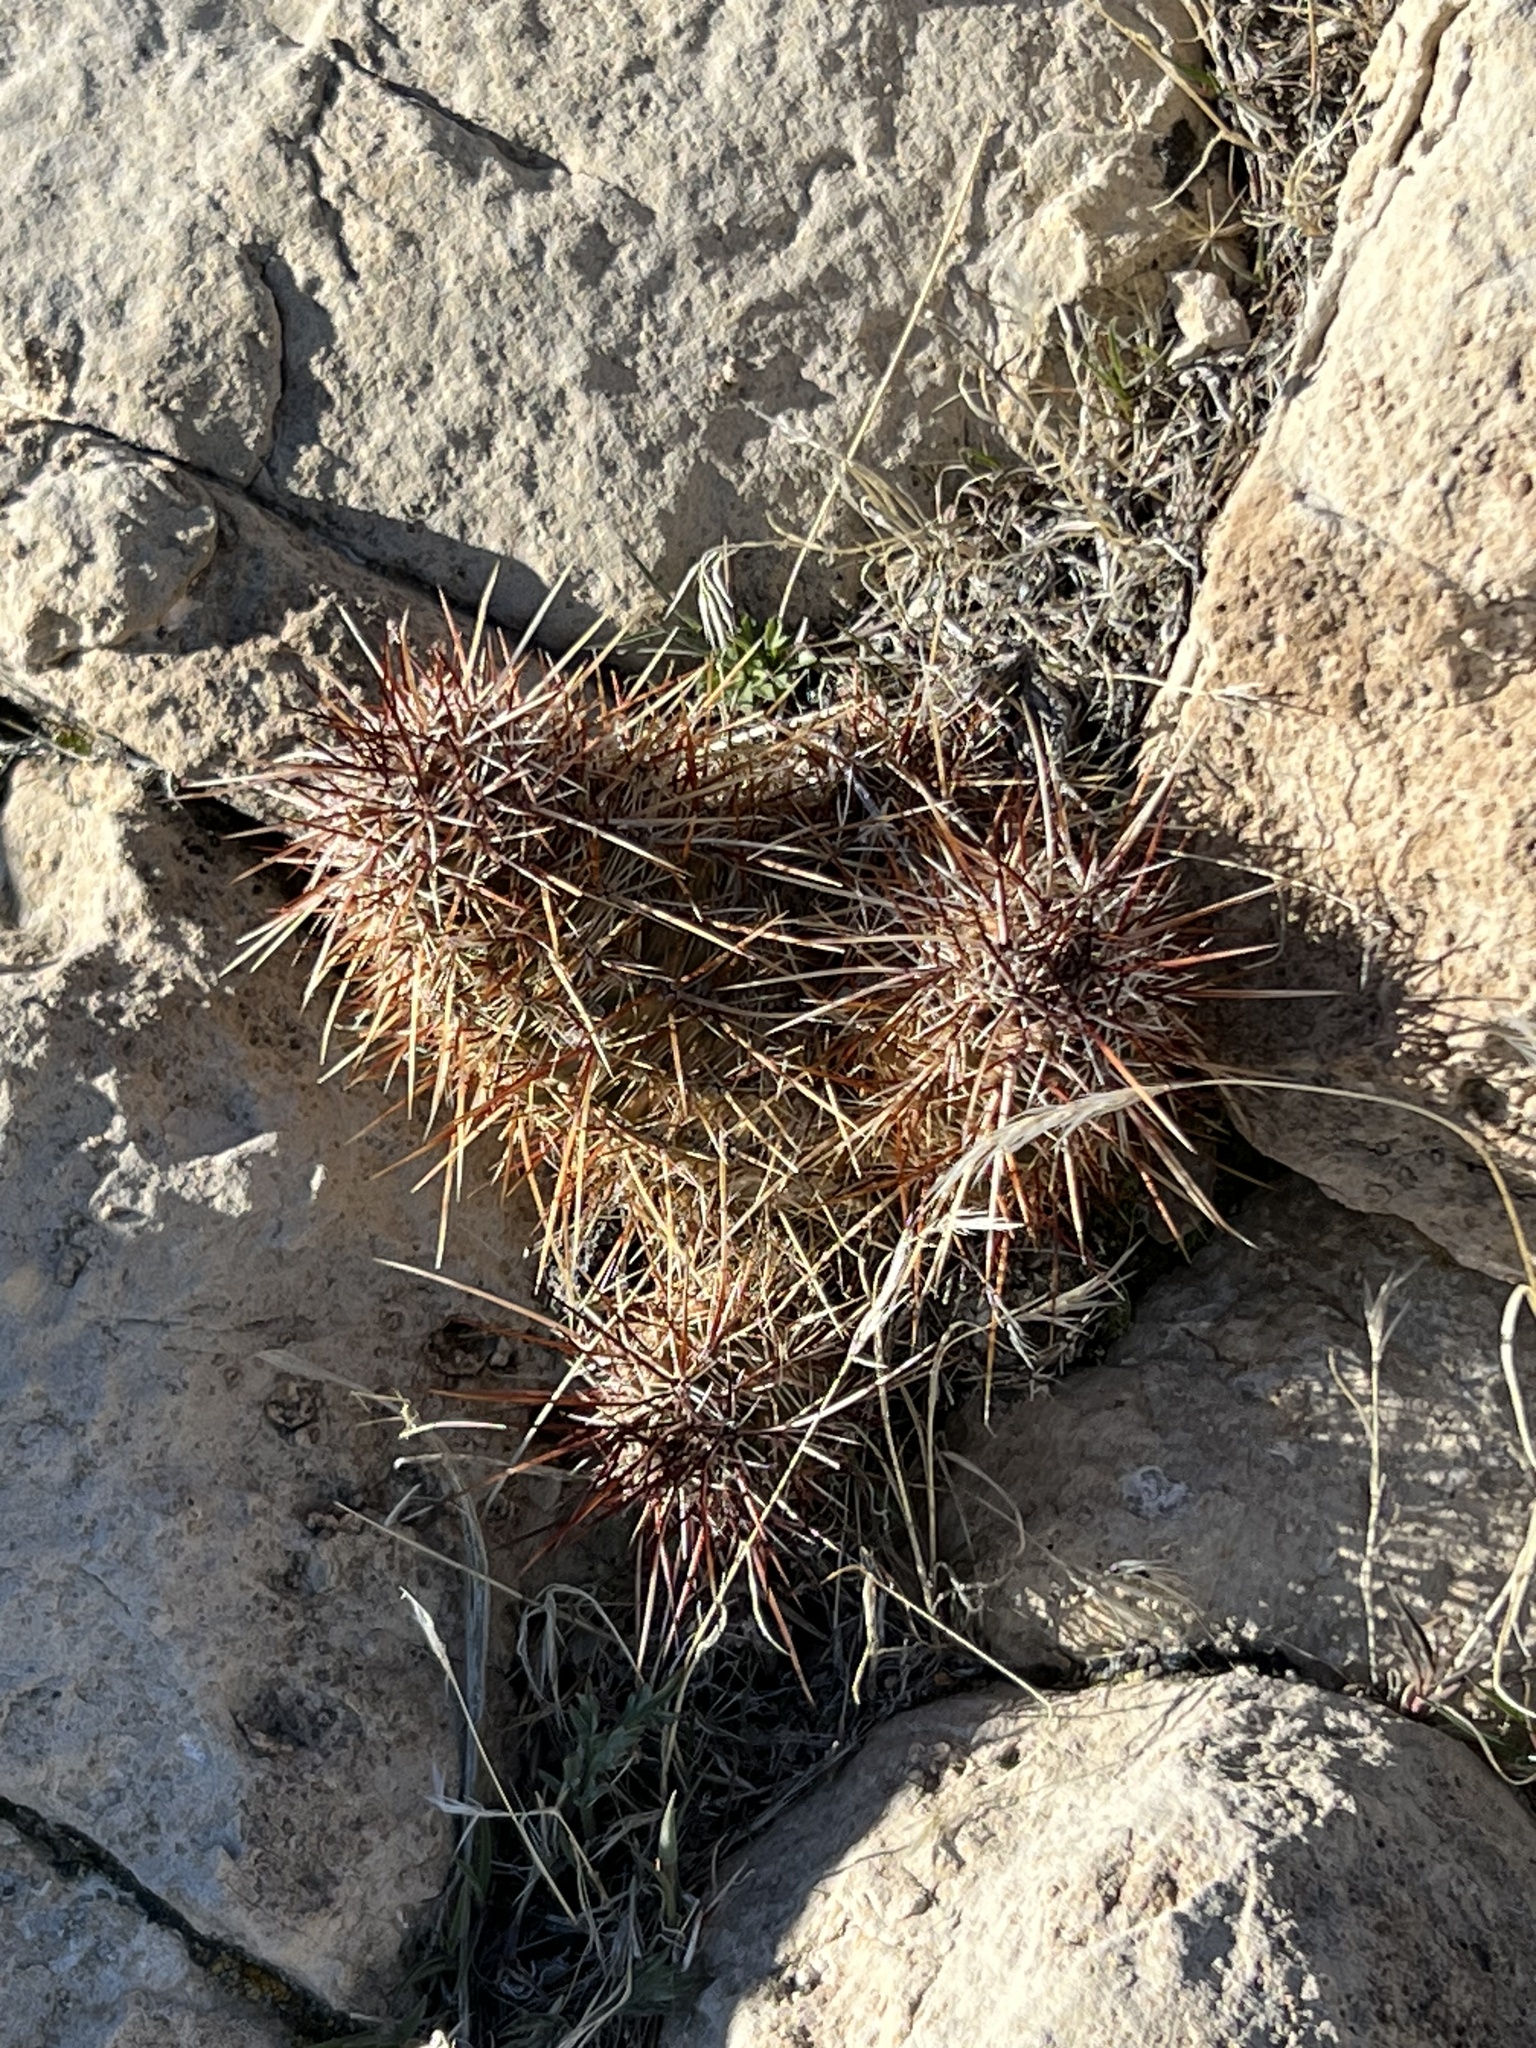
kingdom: Plantae
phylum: Tracheophyta
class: Magnoliopsida
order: Caryophyllales
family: Cactaceae
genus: Echinocereus
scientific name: Echinocereus engelmannii
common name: Engelmann's hedgehog cactus
